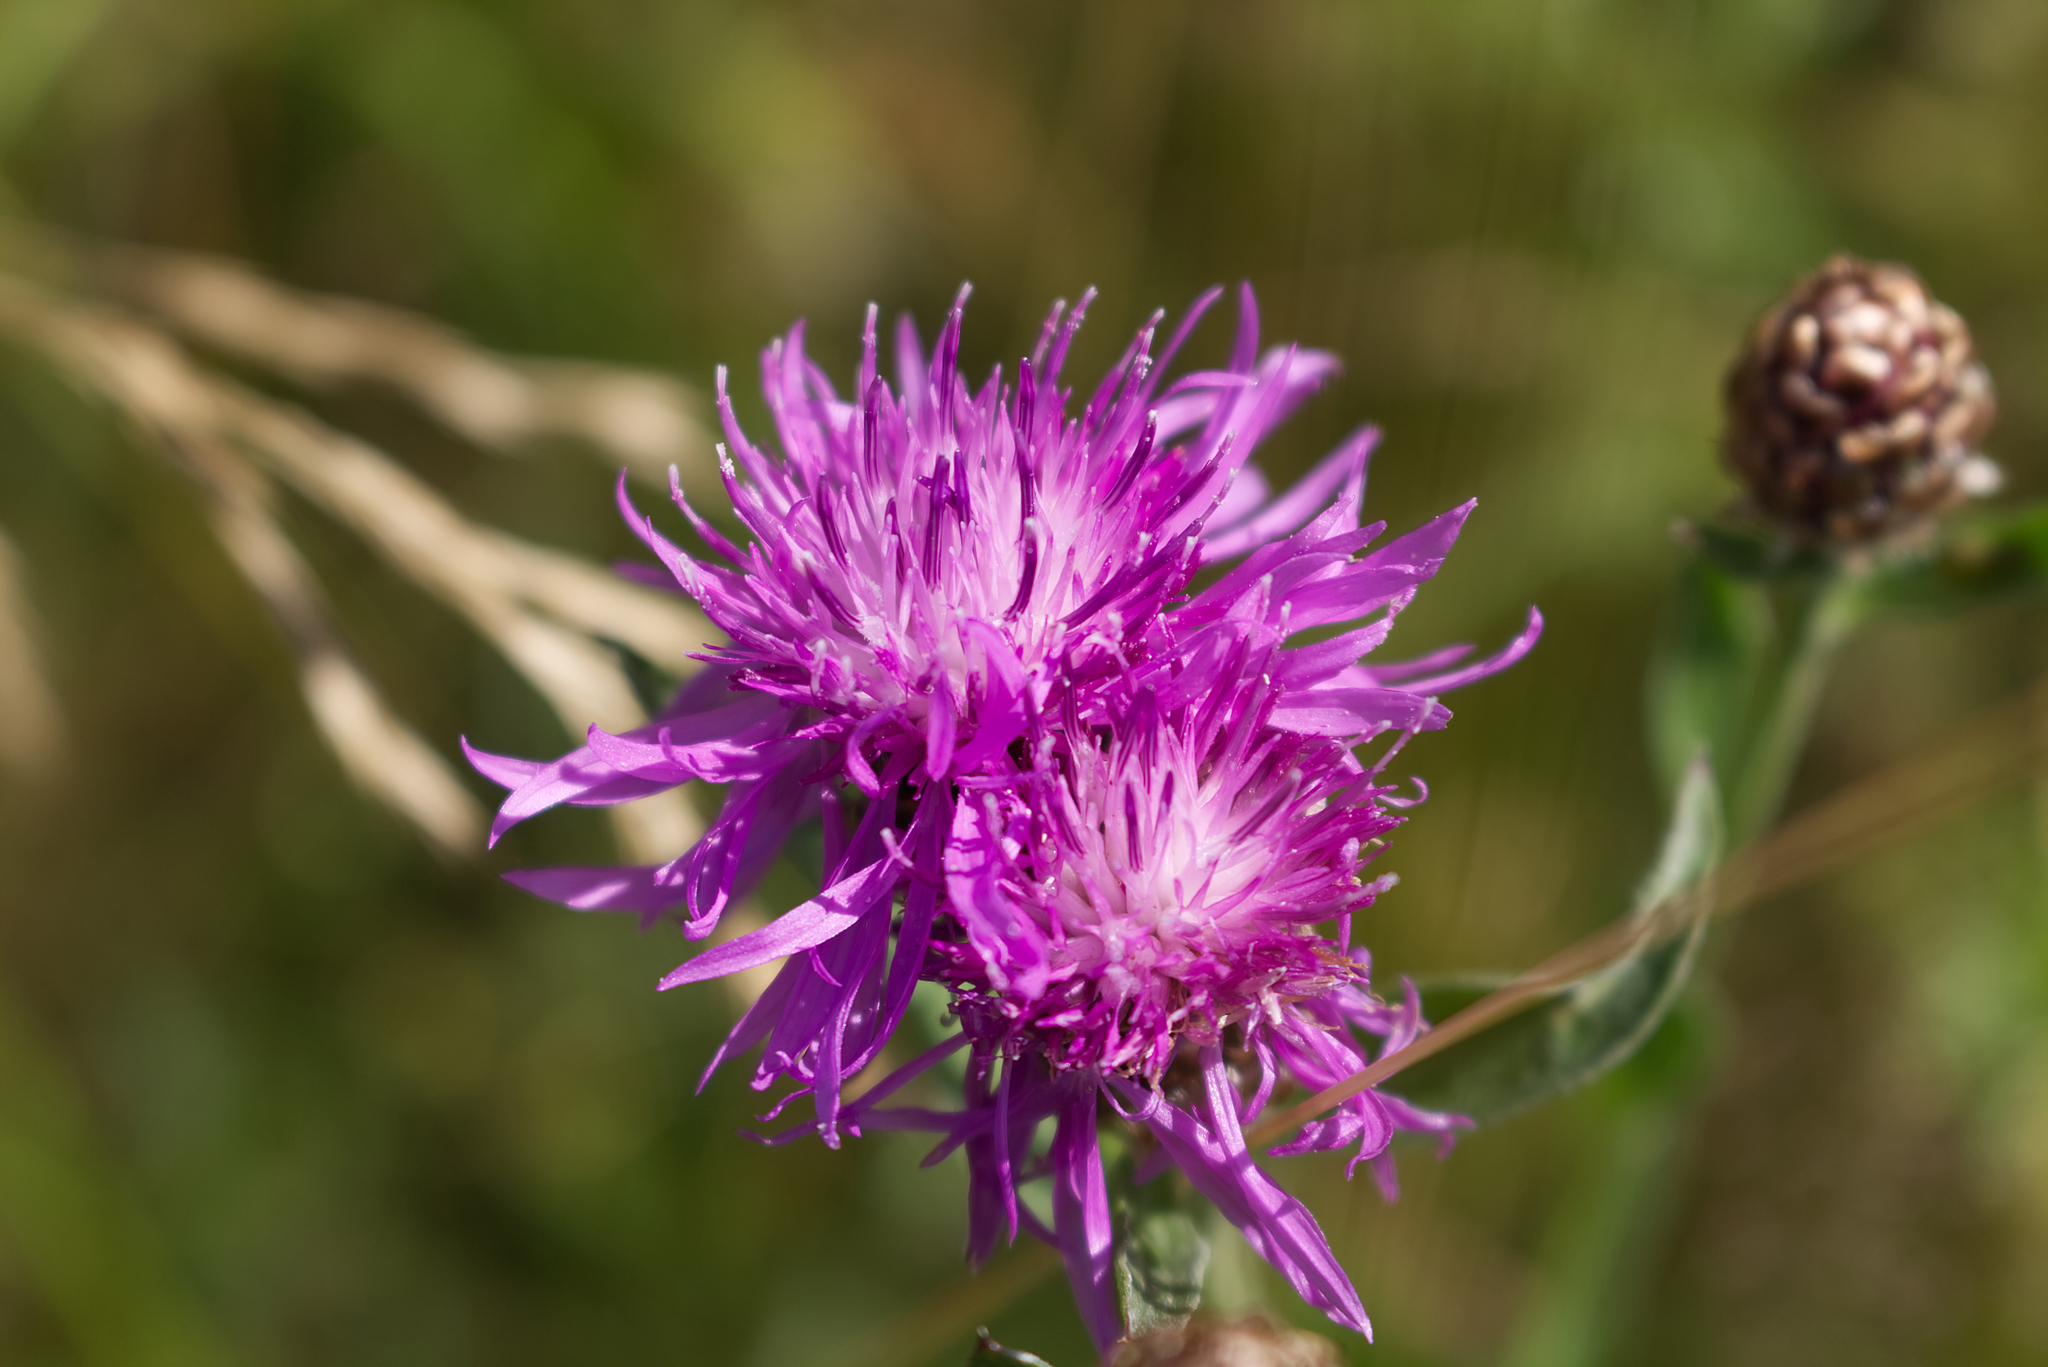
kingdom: Plantae
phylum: Tracheophyta
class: Magnoliopsida
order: Asterales
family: Asteraceae
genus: Centaurea
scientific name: Centaurea jacea
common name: Brown knapweed
